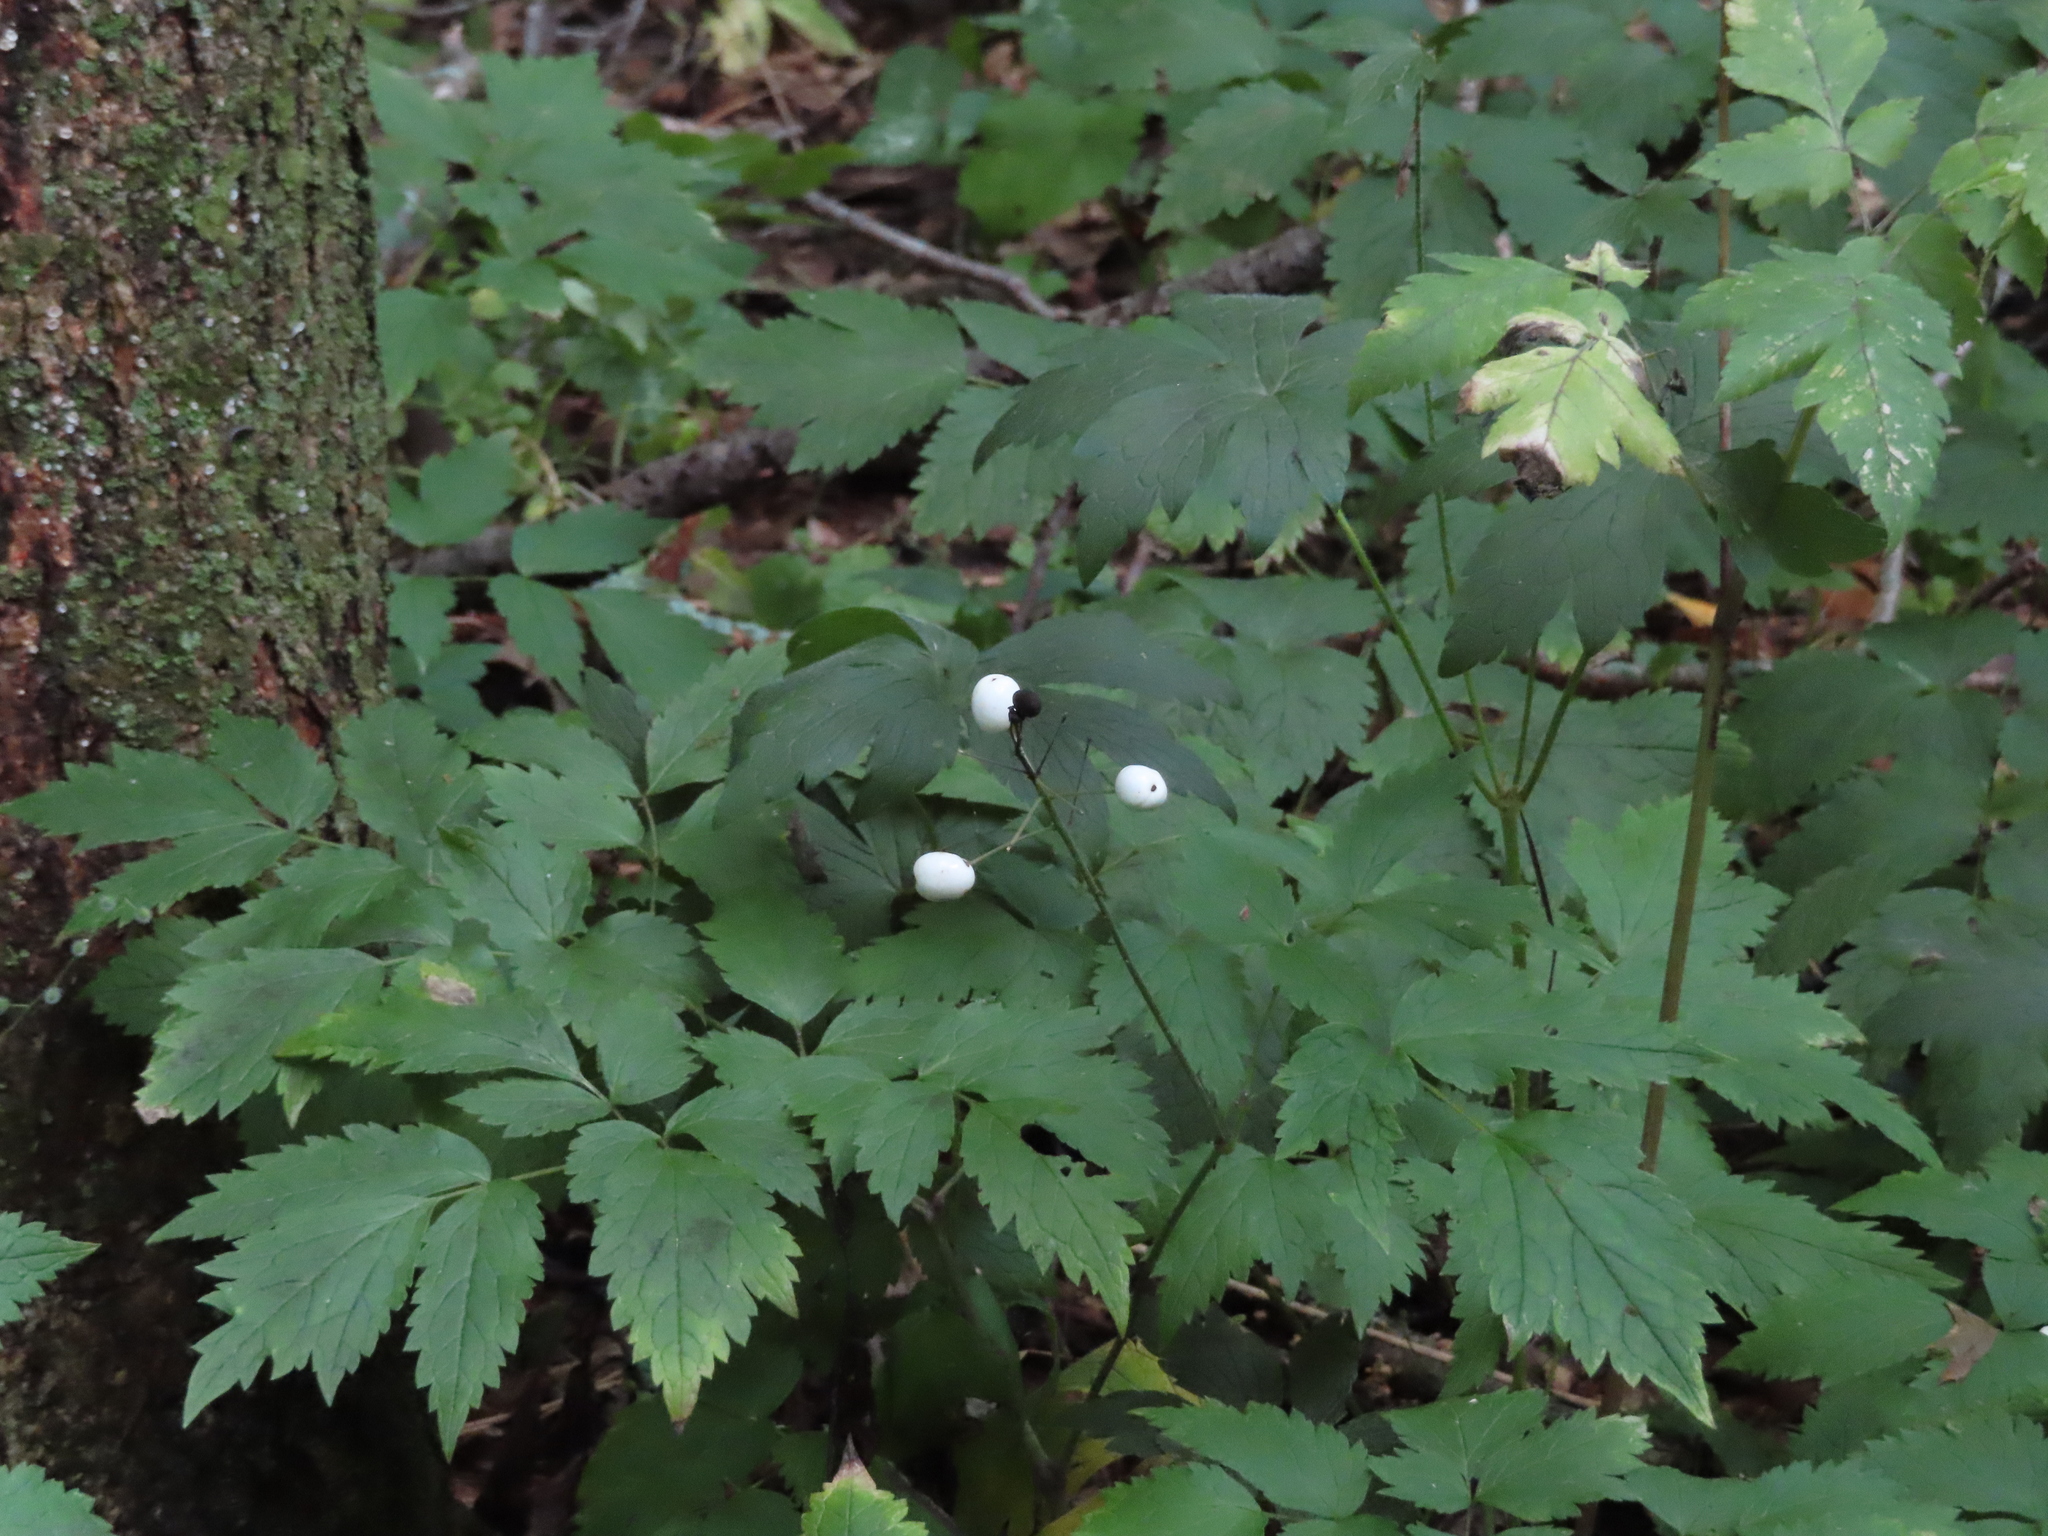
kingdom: Plantae
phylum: Tracheophyta
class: Magnoliopsida
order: Ranunculales
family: Ranunculaceae
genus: Actaea
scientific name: Actaea rubra
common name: Red baneberry
